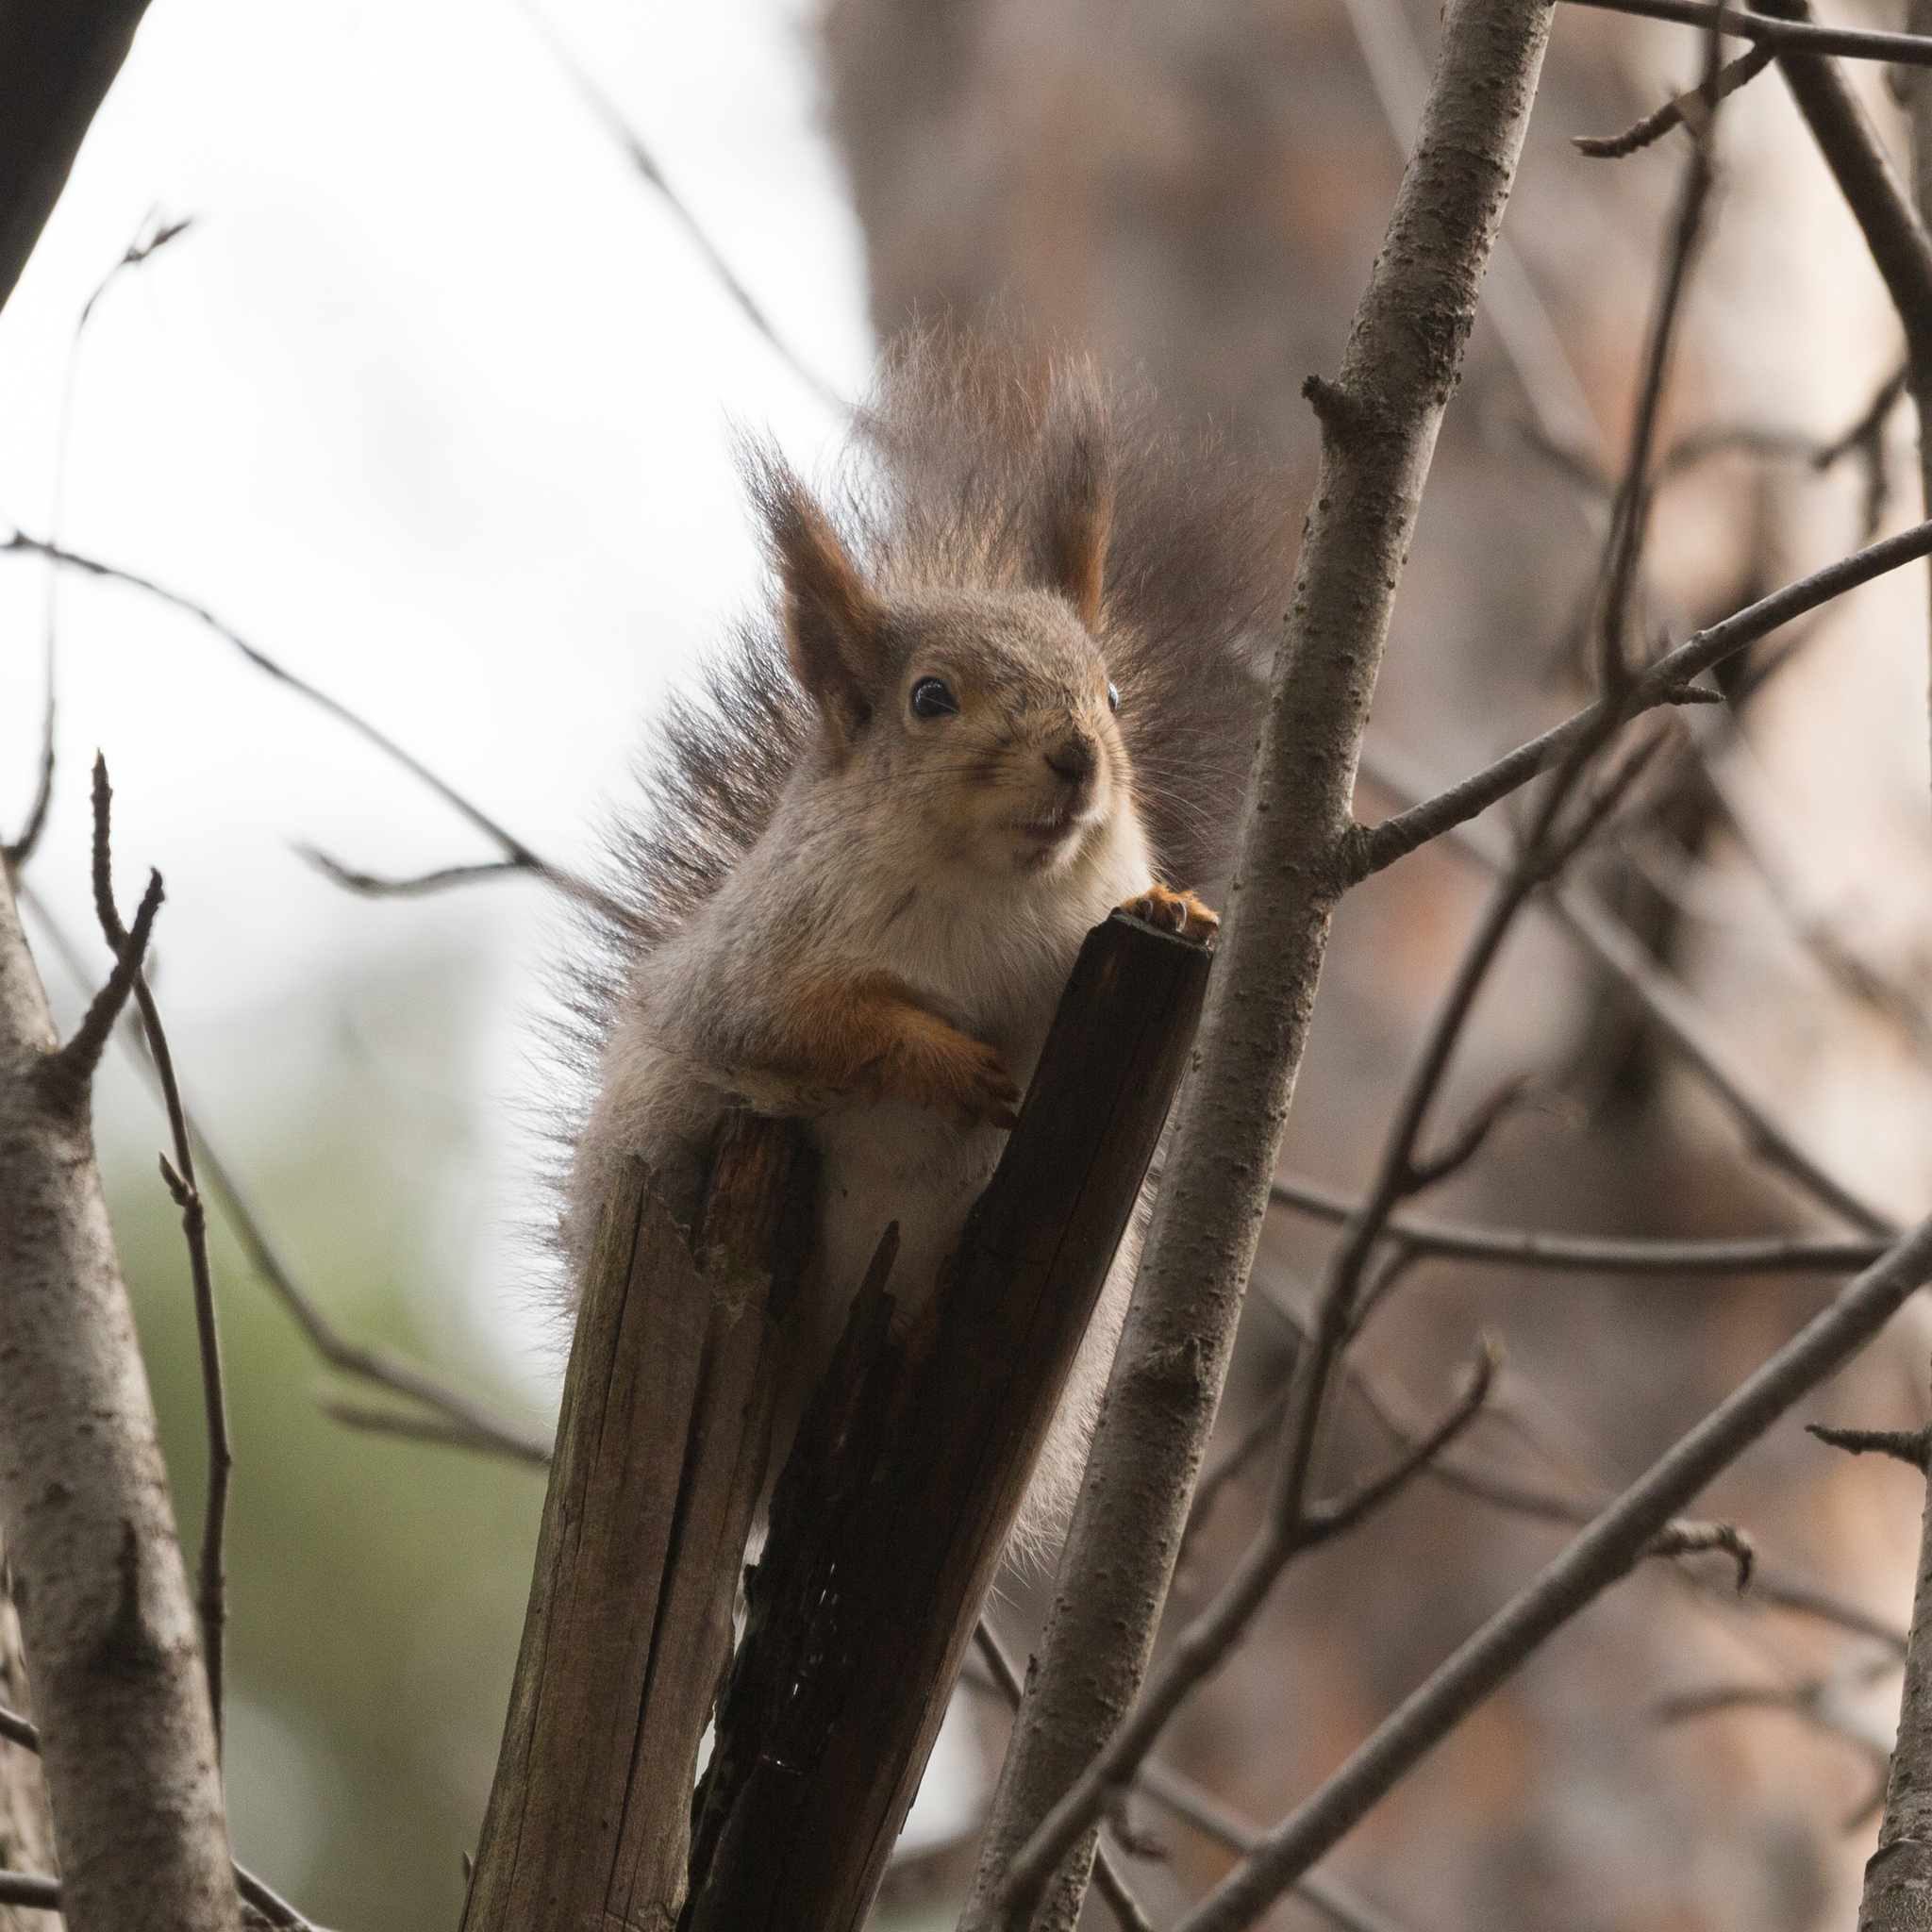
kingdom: Animalia
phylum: Chordata
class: Mammalia
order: Rodentia
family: Sciuridae
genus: Sciurus
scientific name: Sciurus vulgaris
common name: Eurasian red squirrel
